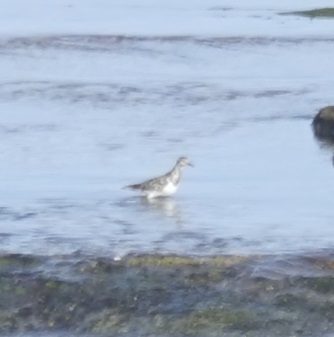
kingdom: Animalia
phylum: Chordata
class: Aves
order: Charadriiformes
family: Scolopacidae
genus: Arenaria
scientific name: Arenaria interpres
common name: Ruddy turnstone
